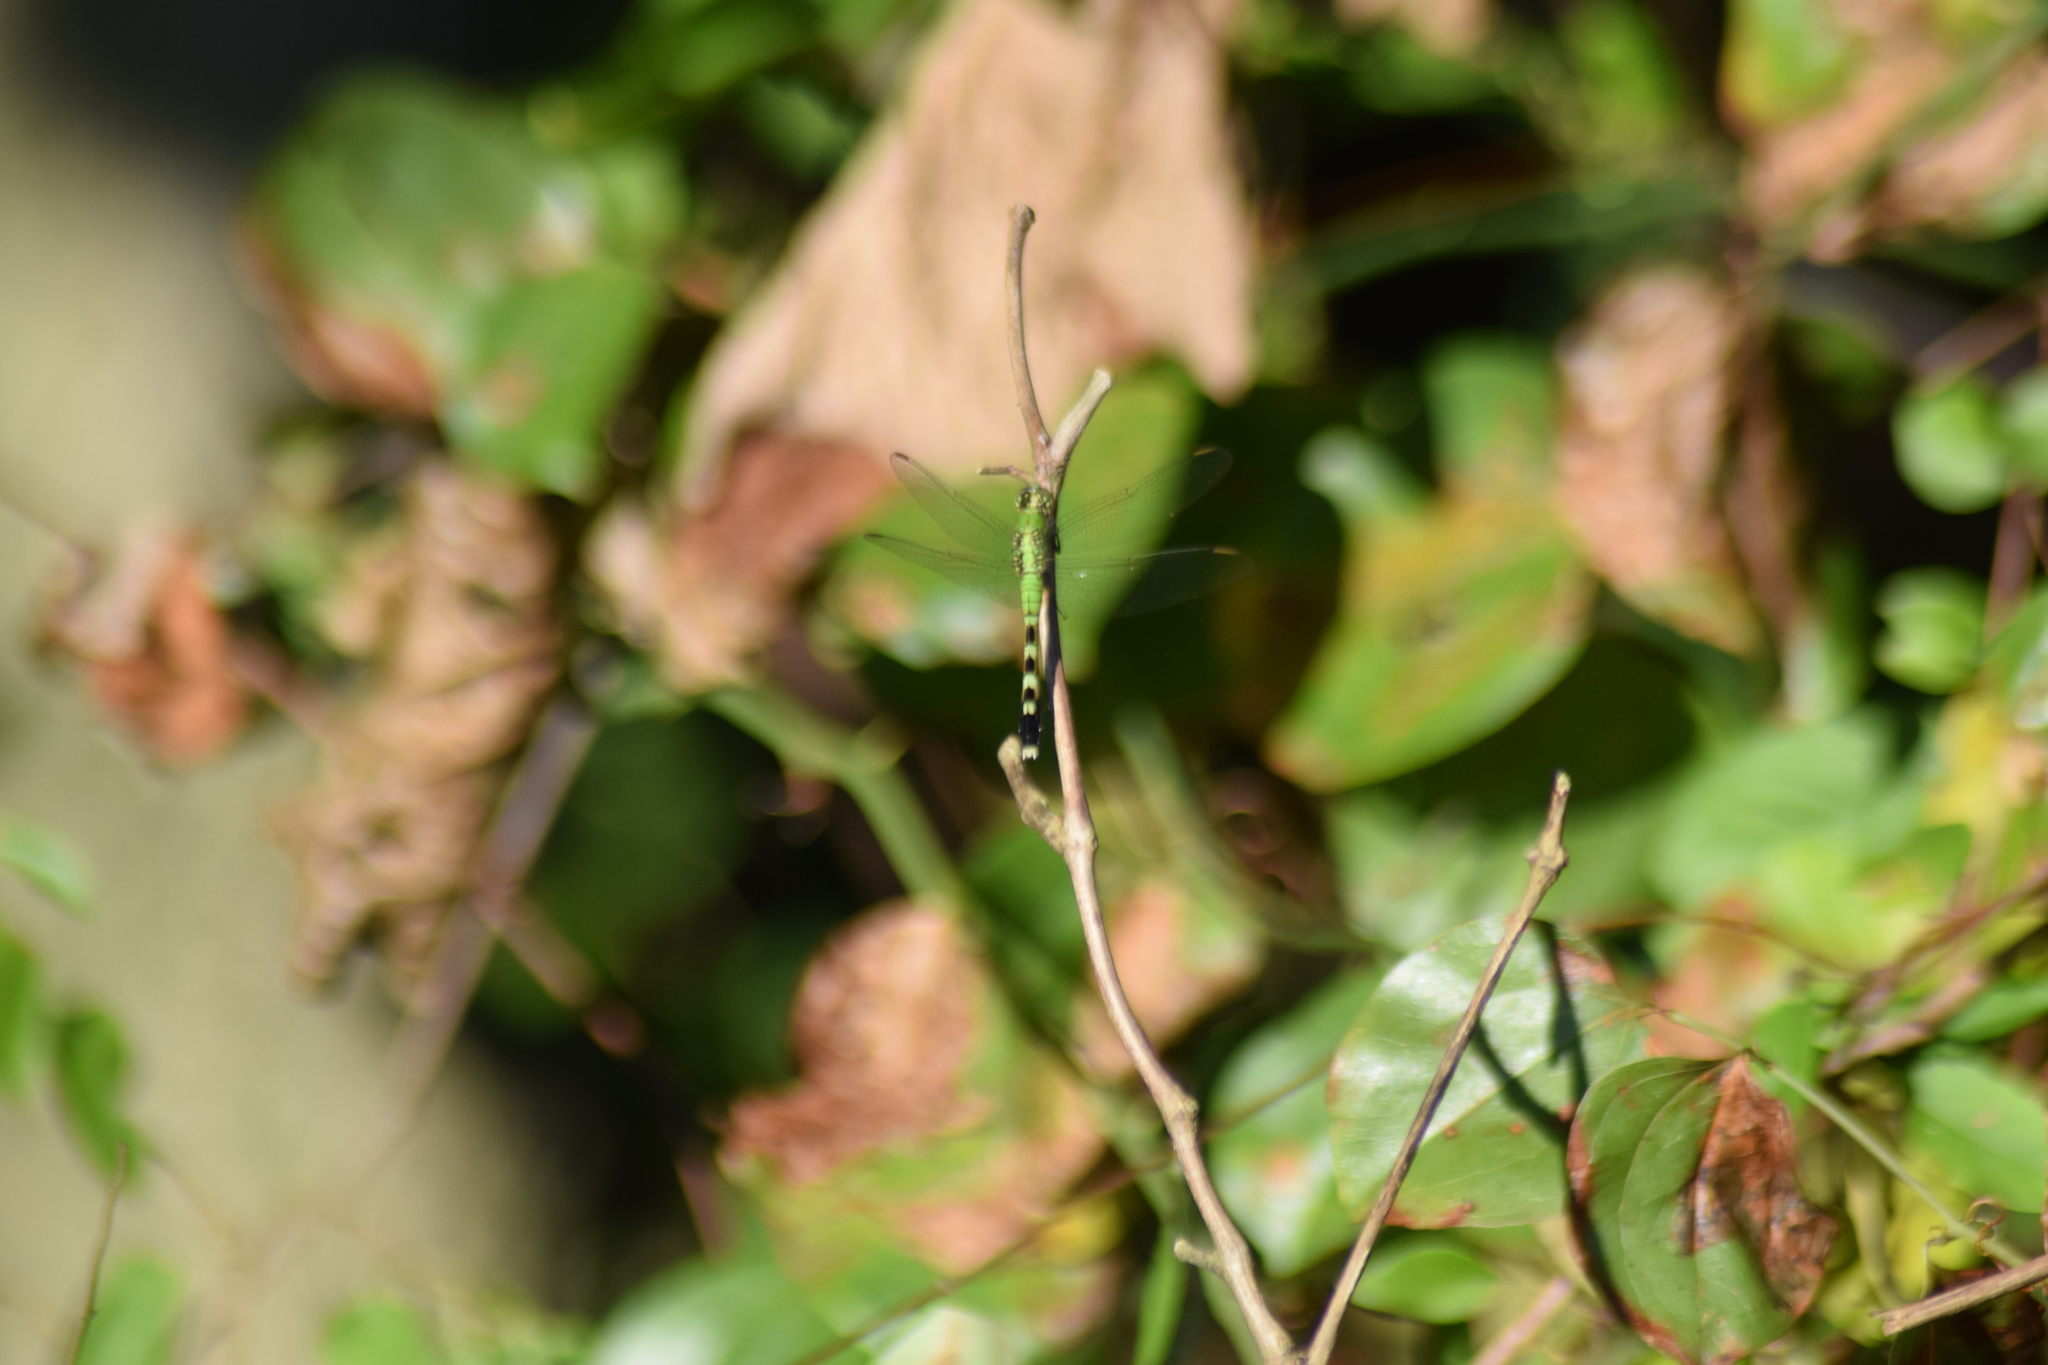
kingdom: Animalia
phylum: Arthropoda
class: Insecta
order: Odonata
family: Libellulidae
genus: Erythemis
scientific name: Erythemis simplicicollis
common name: Eastern pondhawk
